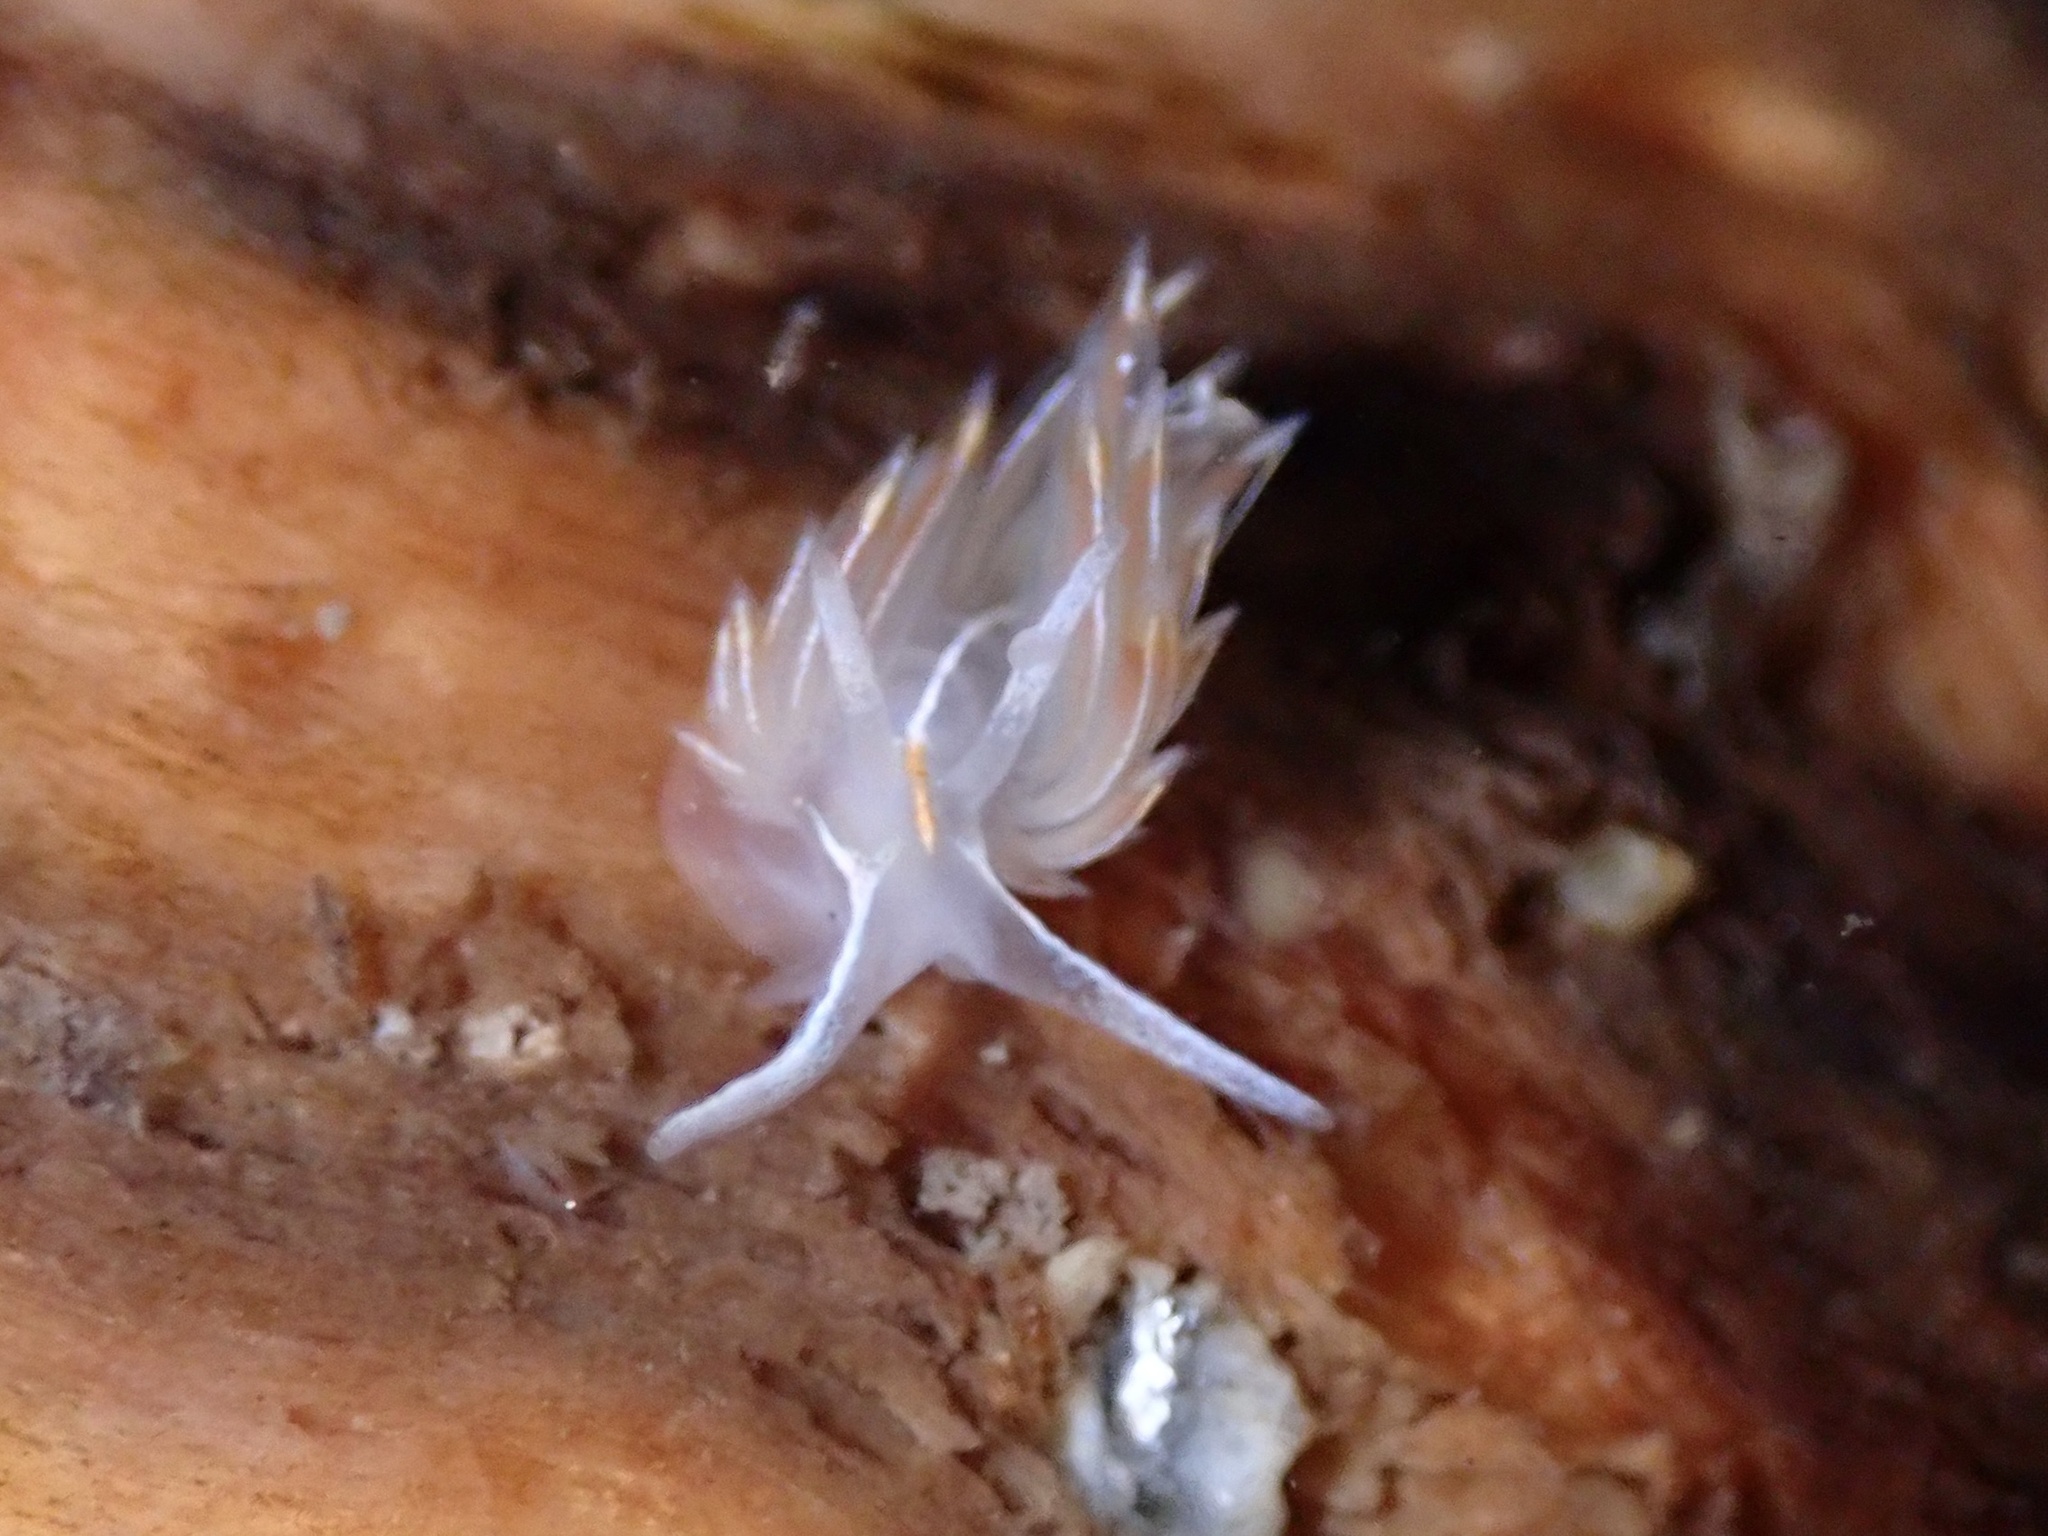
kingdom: Animalia
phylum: Mollusca
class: Gastropoda
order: Nudibranchia
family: Myrrhinidae
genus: Hermissenda
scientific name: Hermissenda crassicornis
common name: Hermissenda
